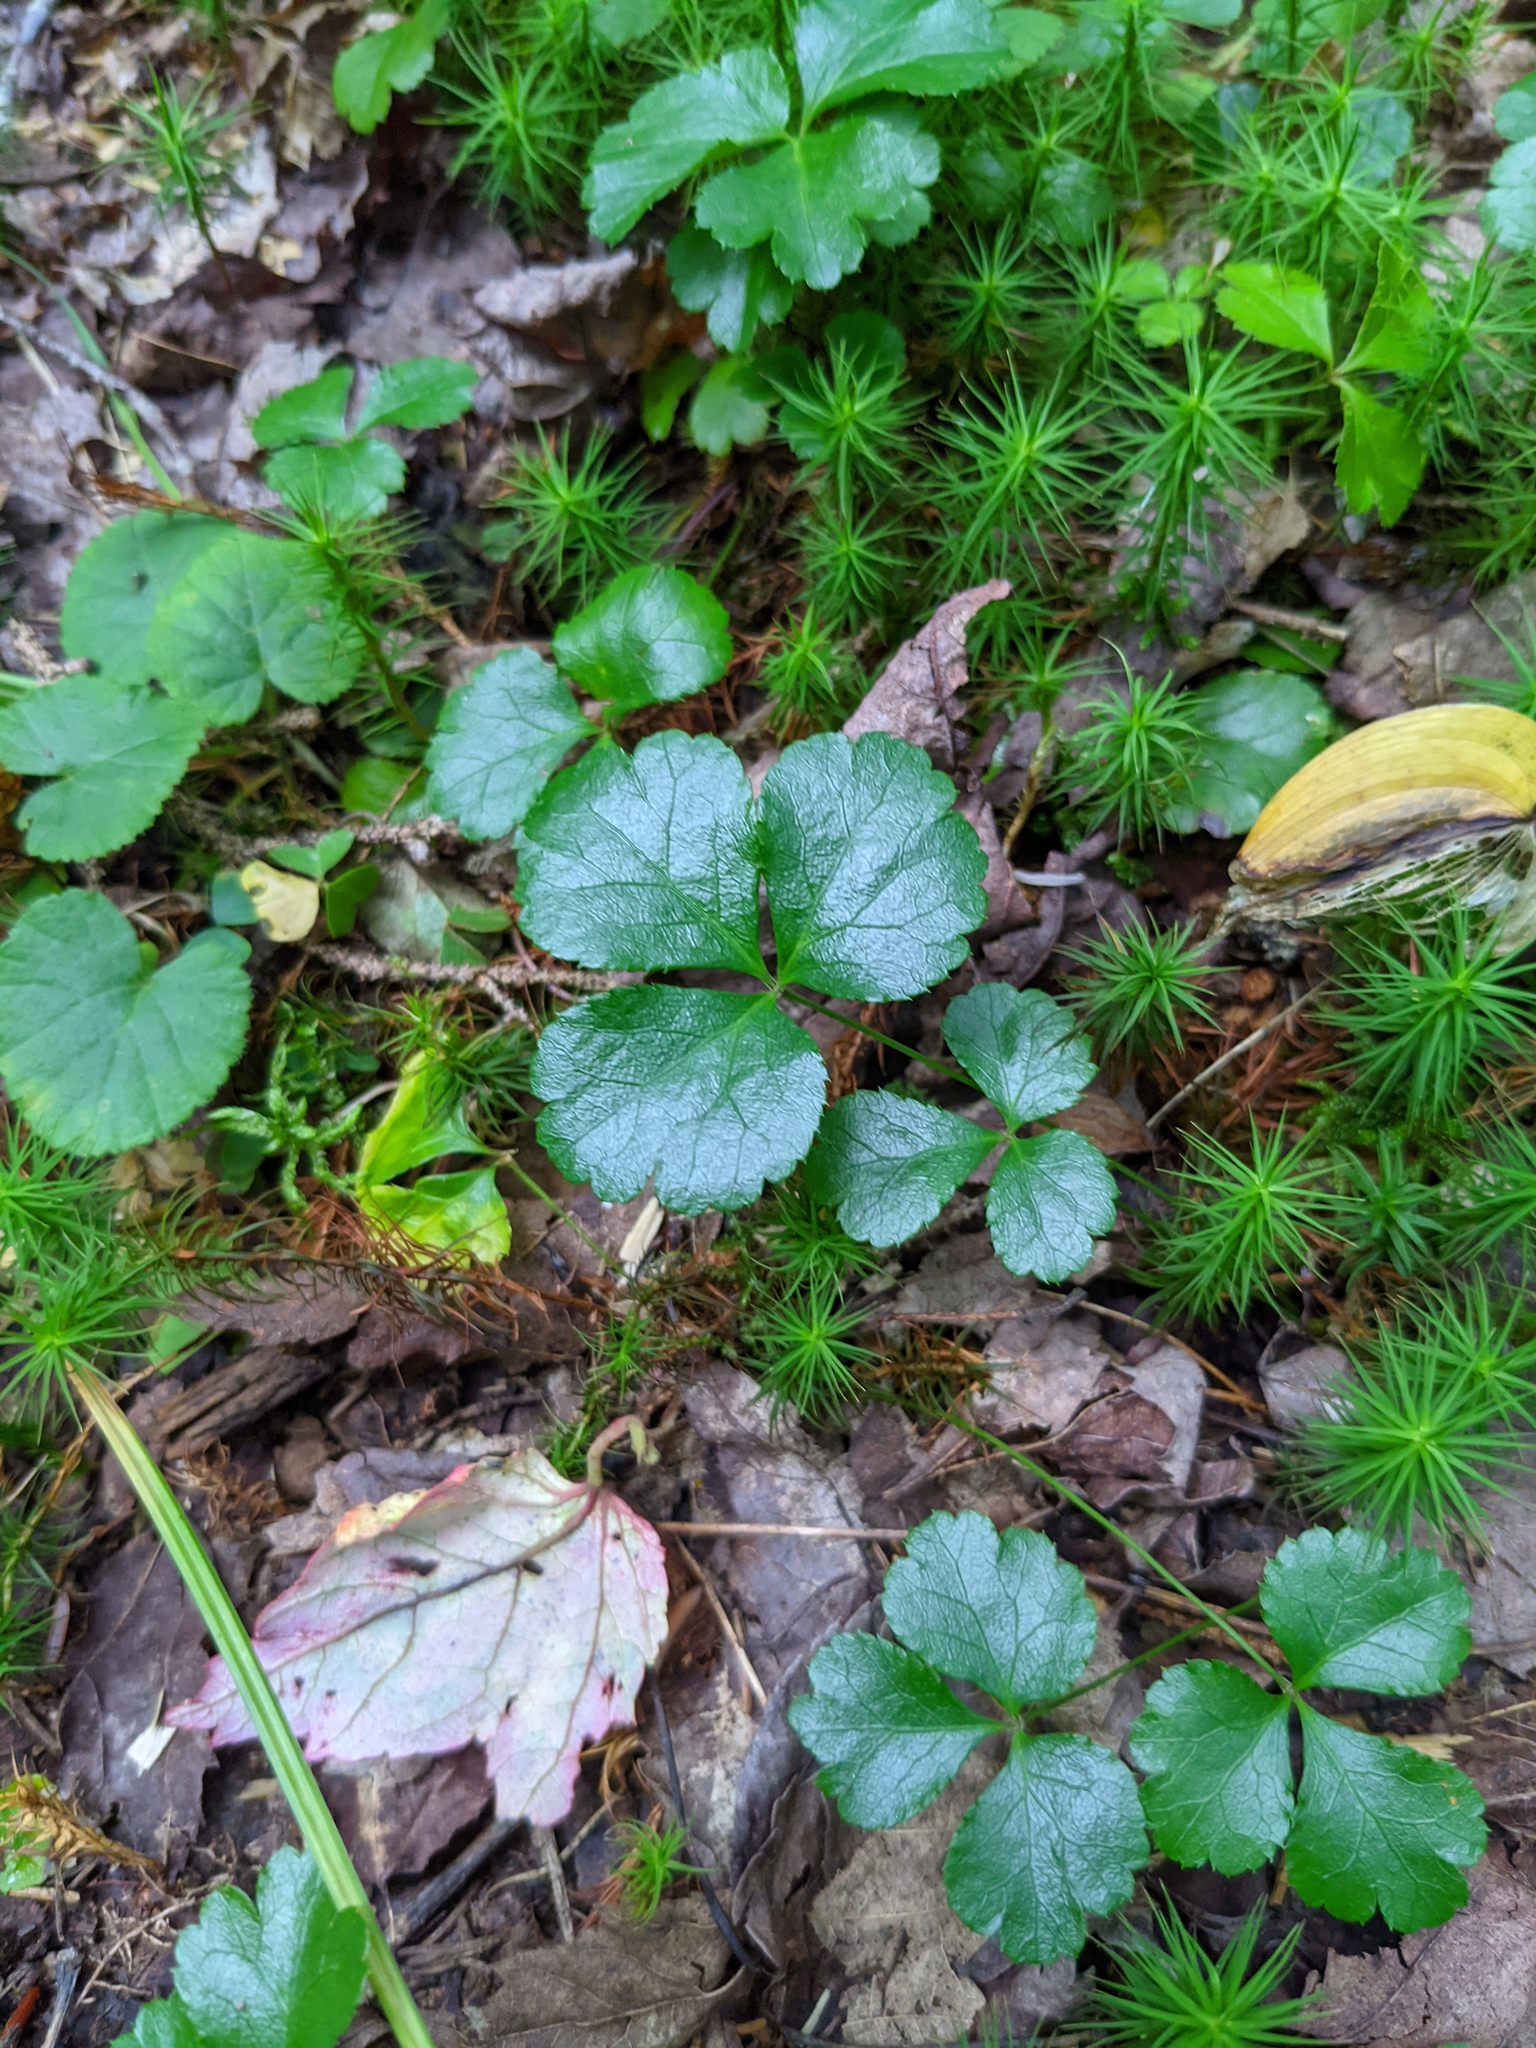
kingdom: Plantae
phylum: Tracheophyta
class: Magnoliopsida
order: Ranunculales
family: Ranunculaceae
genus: Coptis
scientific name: Coptis trifolia
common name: Canker-root
